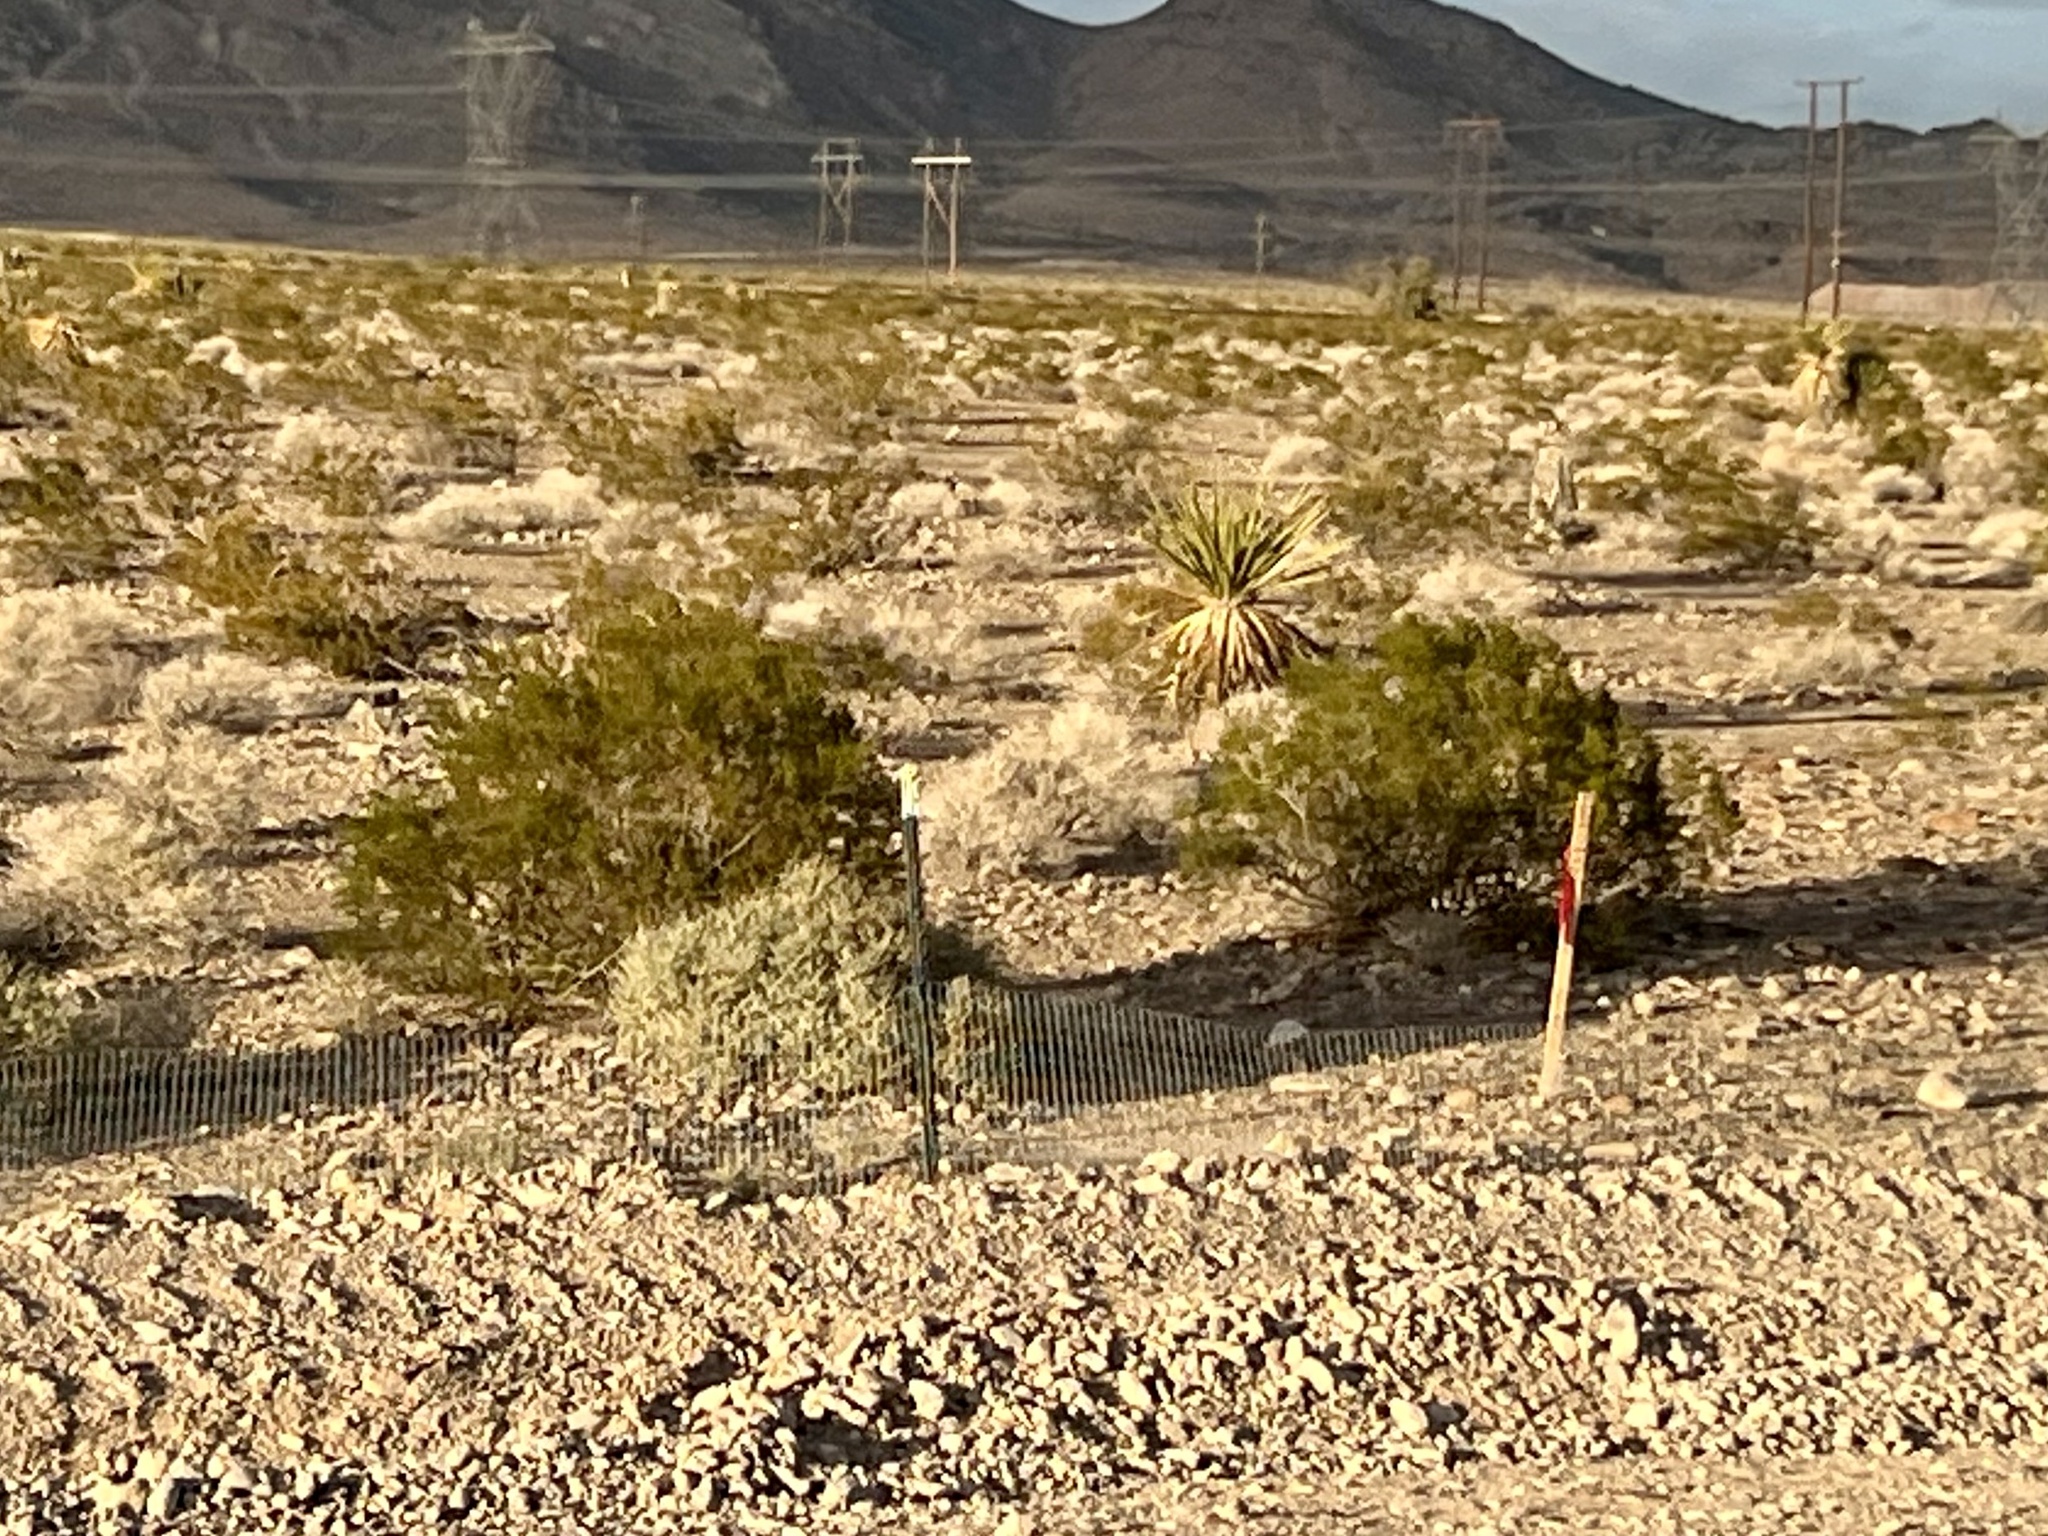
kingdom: Plantae
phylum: Tracheophyta
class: Magnoliopsida
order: Zygophyllales
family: Zygophyllaceae
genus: Larrea
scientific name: Larrea tridentata
